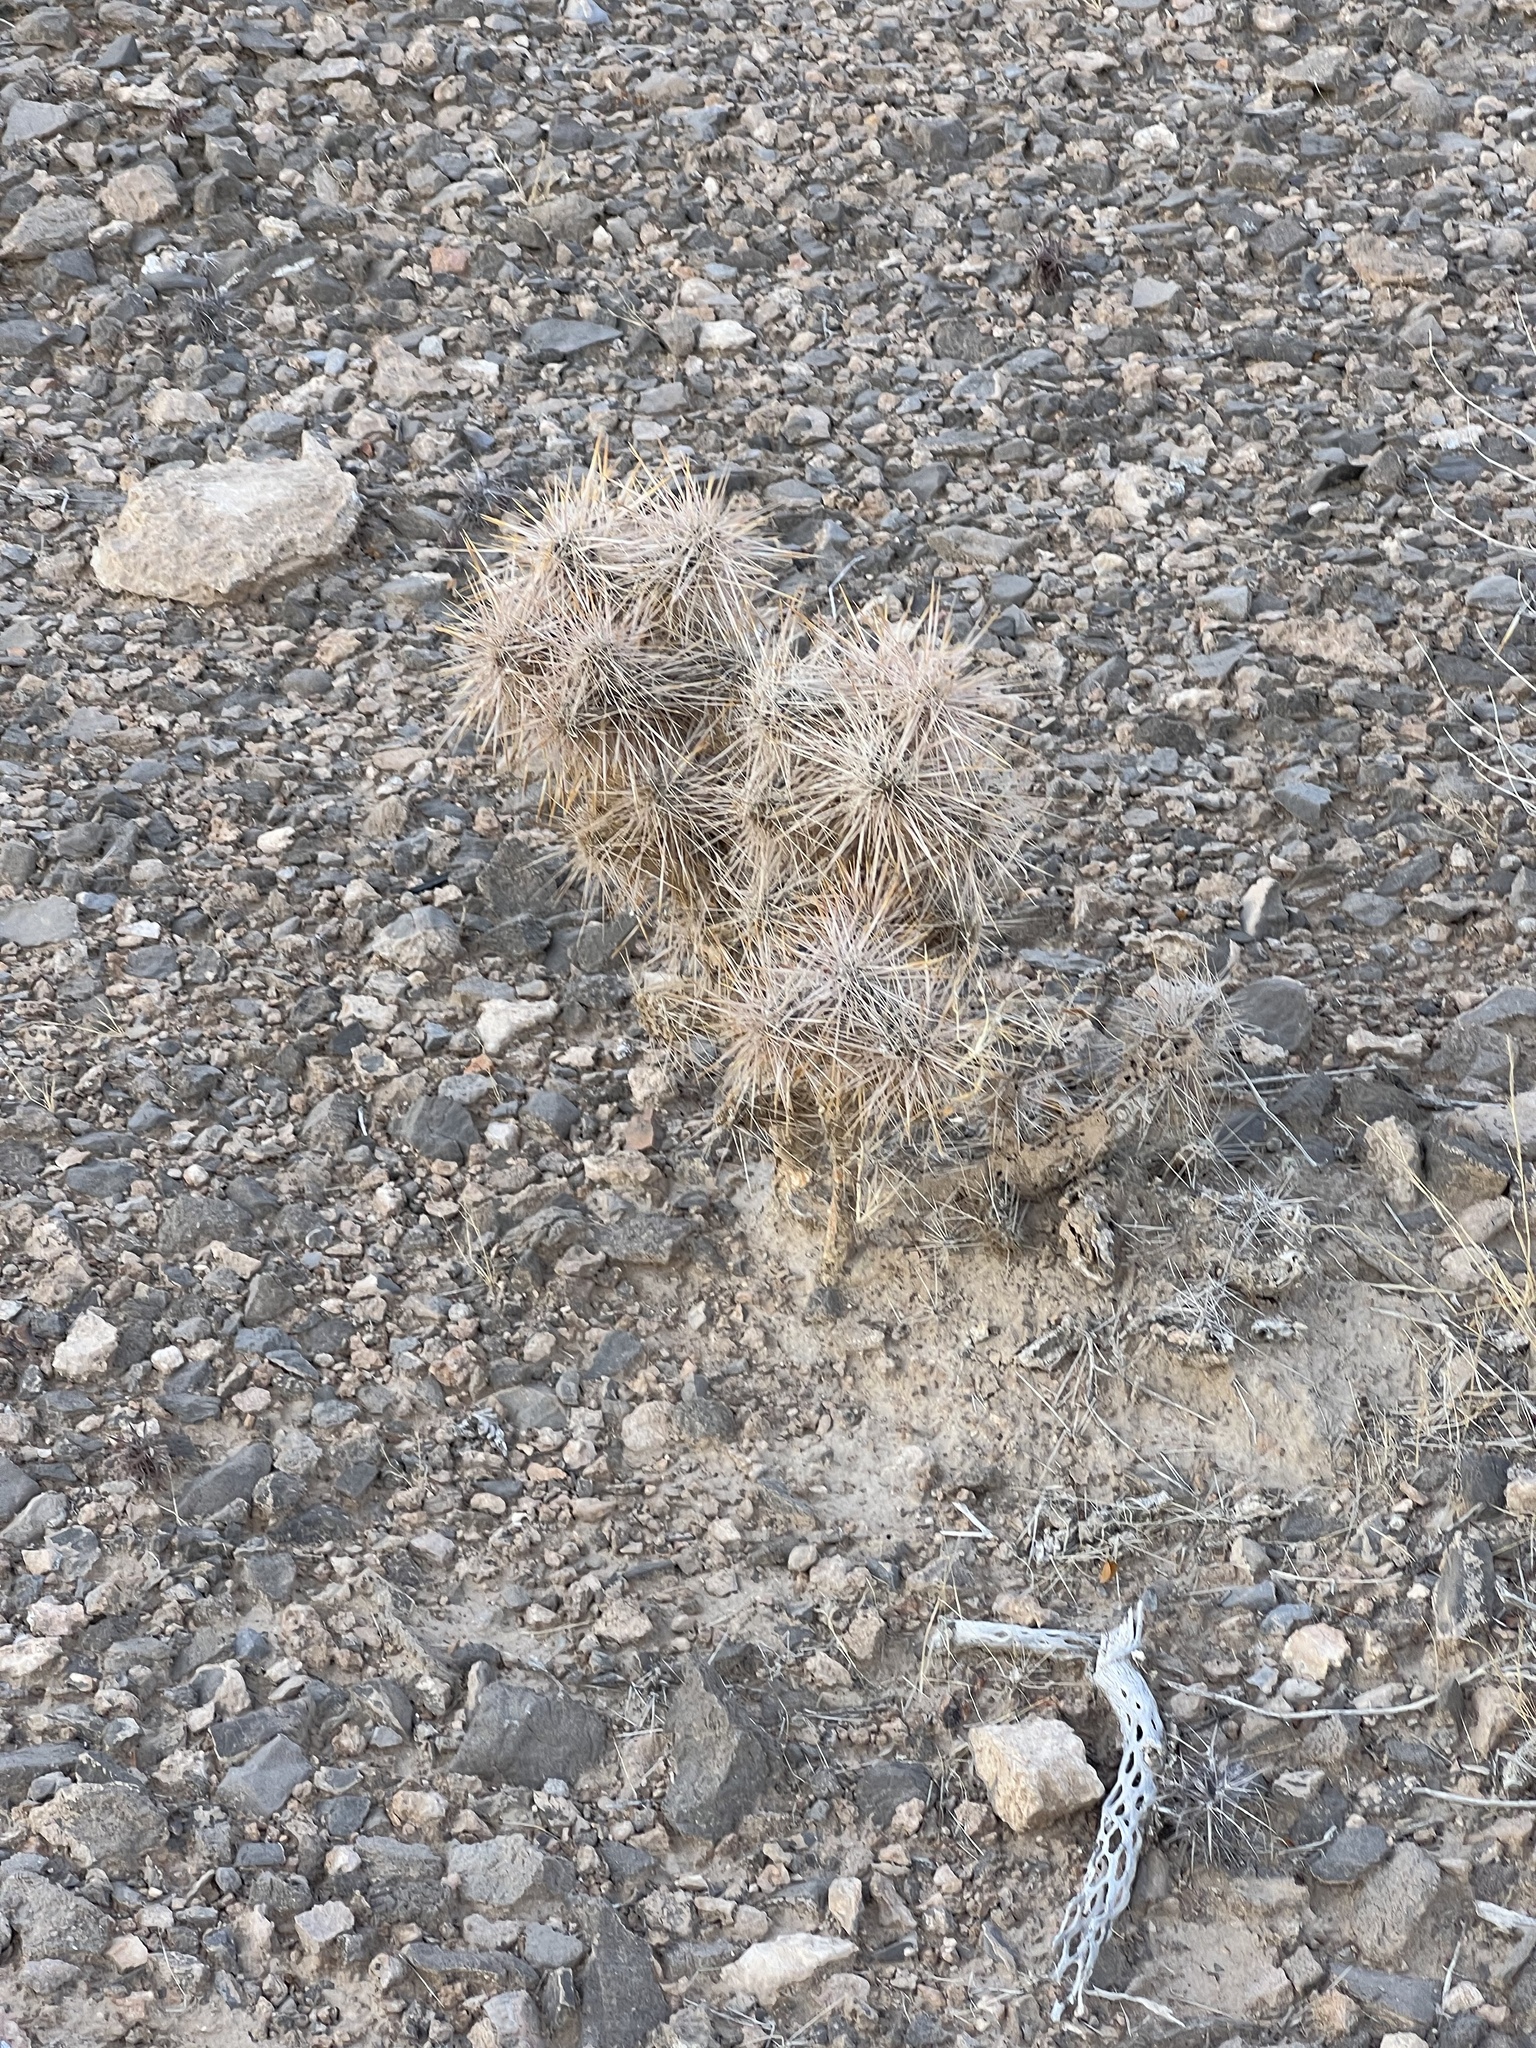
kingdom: Plantae
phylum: Tracheophyta
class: Magnoliopsida
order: Caryophyllales
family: Cactaceae
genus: Cylindropuntia
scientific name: Cylindropuntia echinocarpa
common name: Ground cholla
